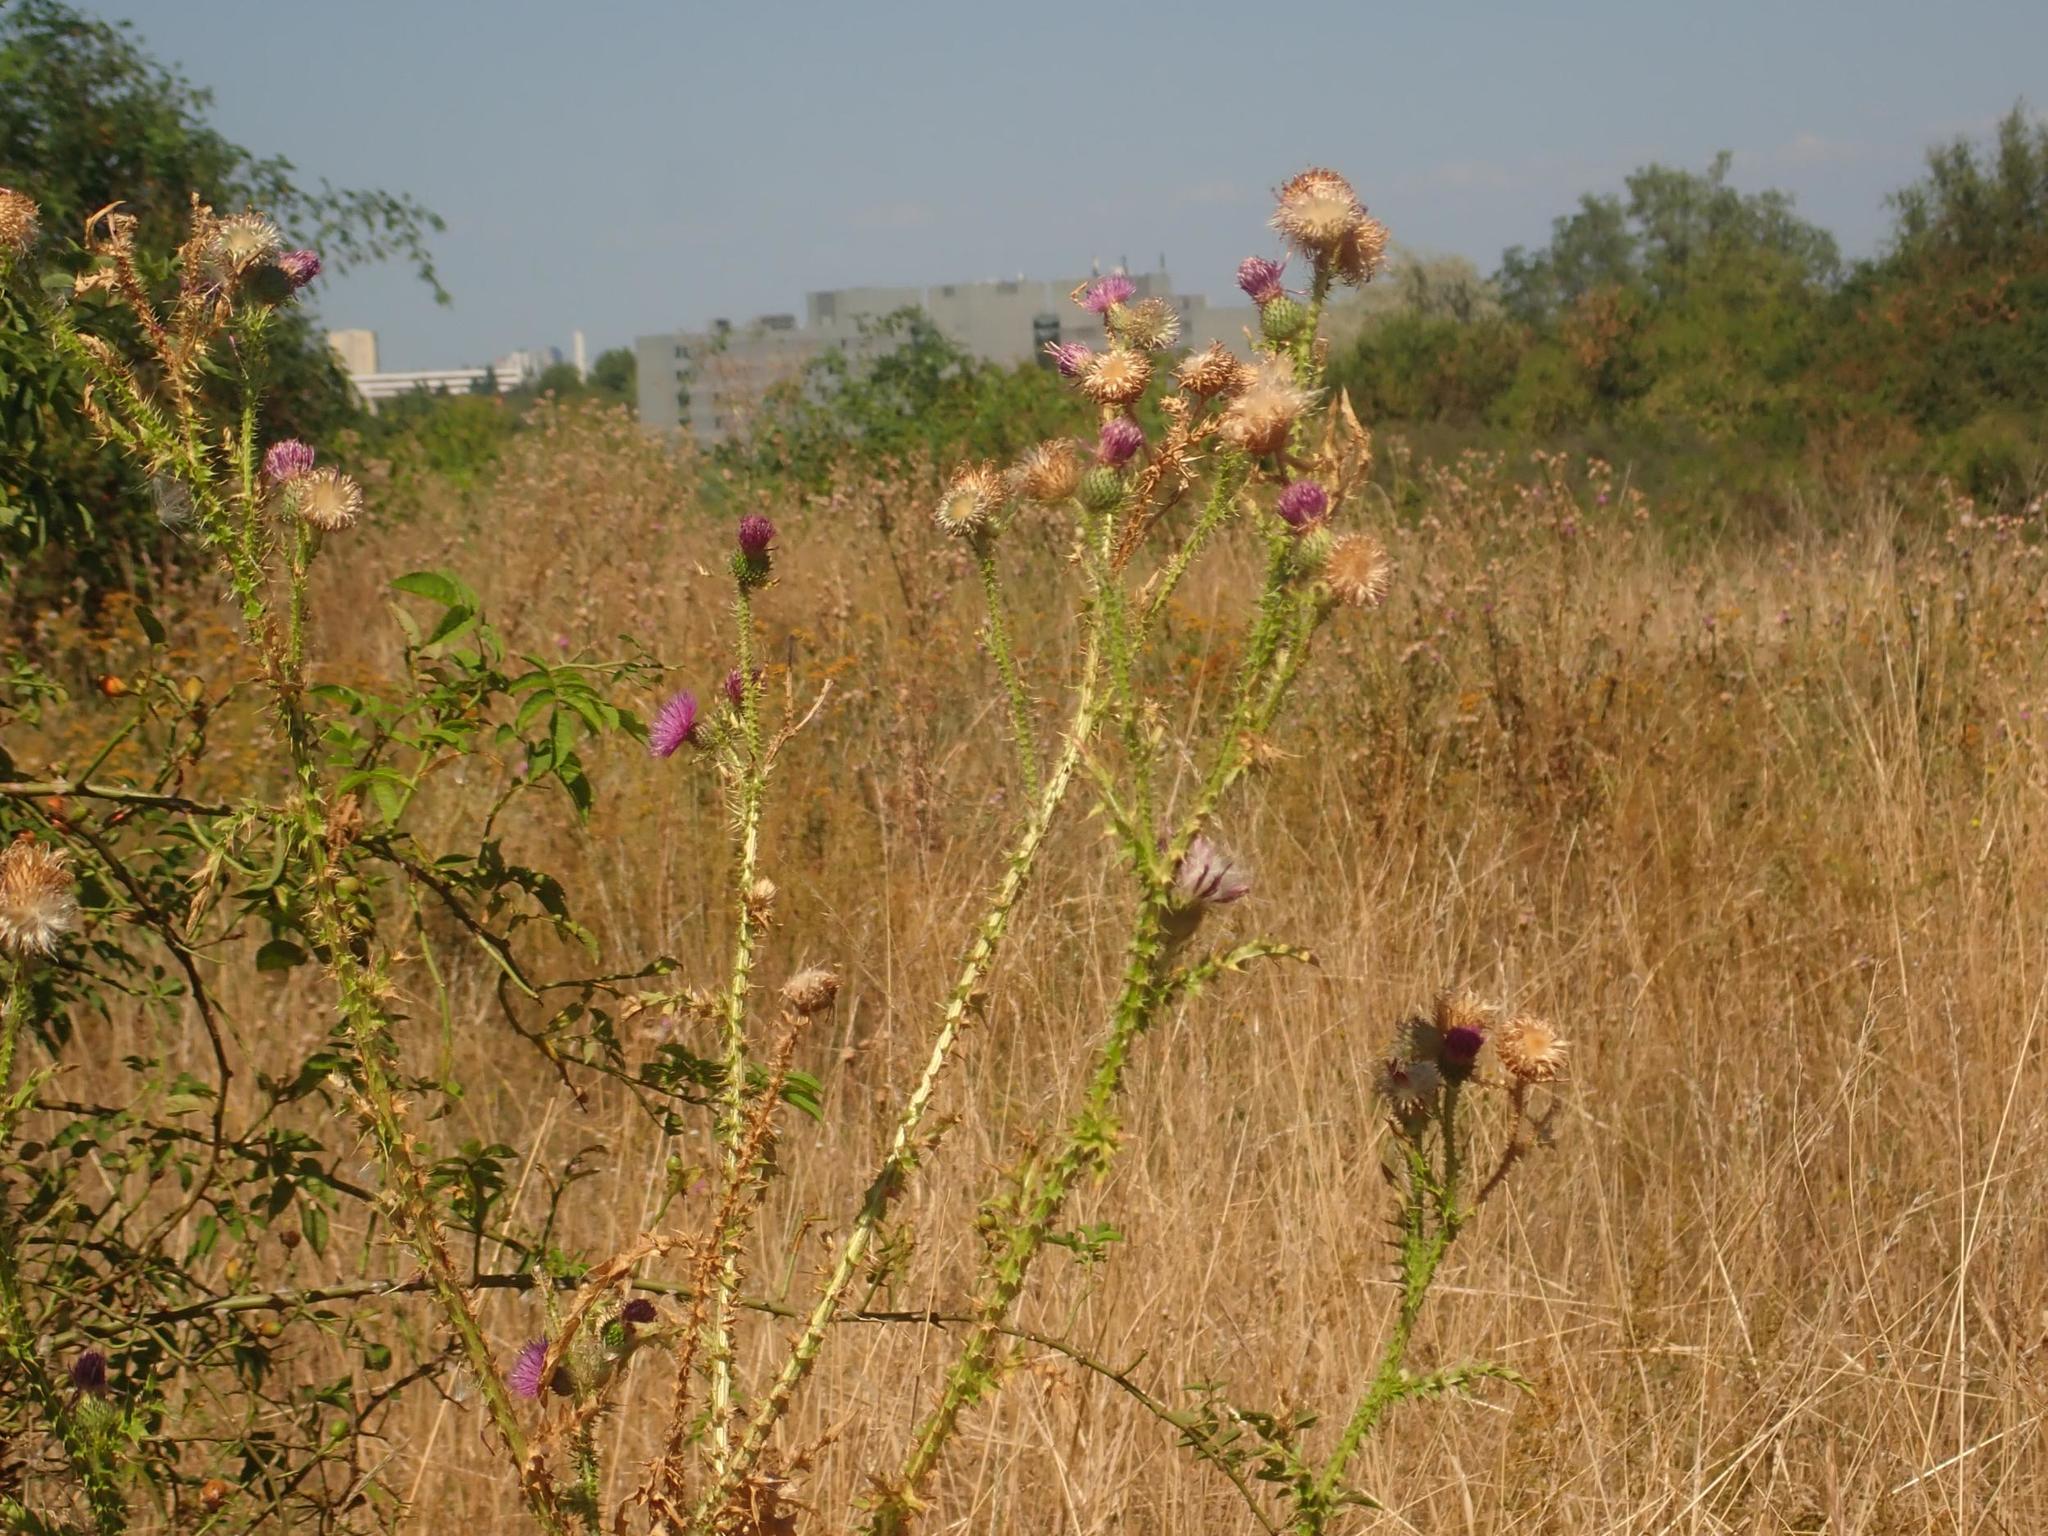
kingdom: Plantae
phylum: Tracheophyta
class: Magnoliopsida
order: Asterales
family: Asteraceae
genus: Carduus
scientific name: Carduus acanthoides
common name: Plumeless thistle
